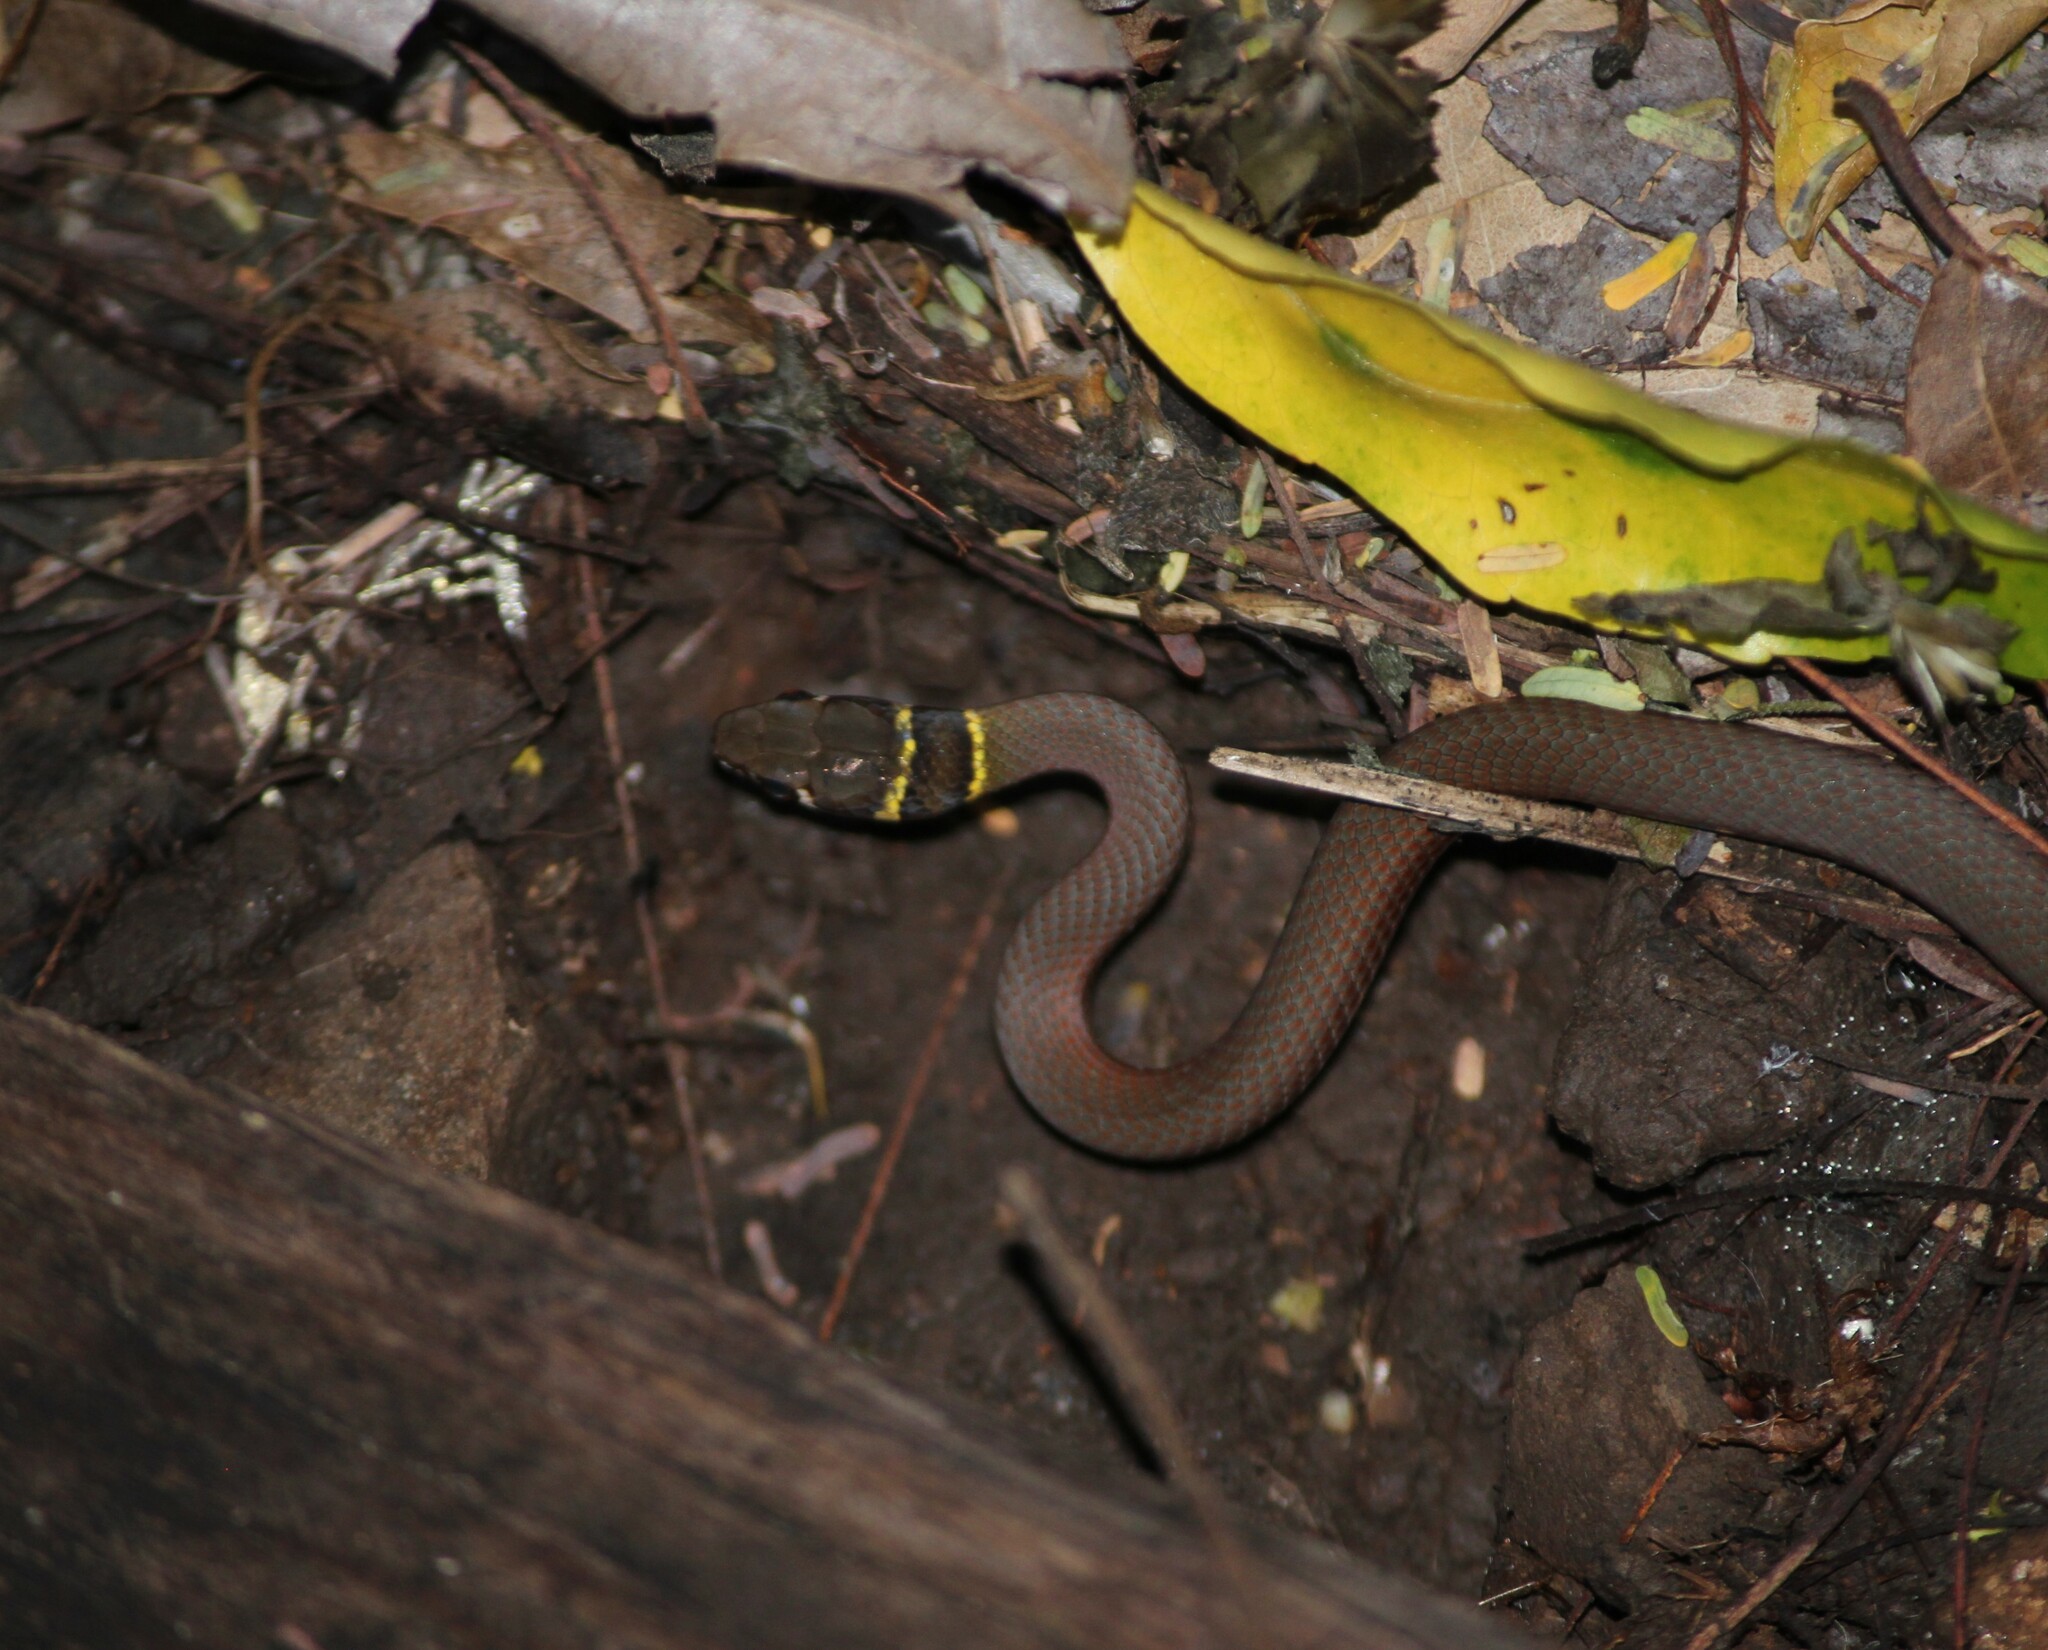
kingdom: Animalia
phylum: Chordata
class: Squamata
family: Elapidae
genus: Demansia
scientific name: Demansia torquata
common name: Collared whip snake
